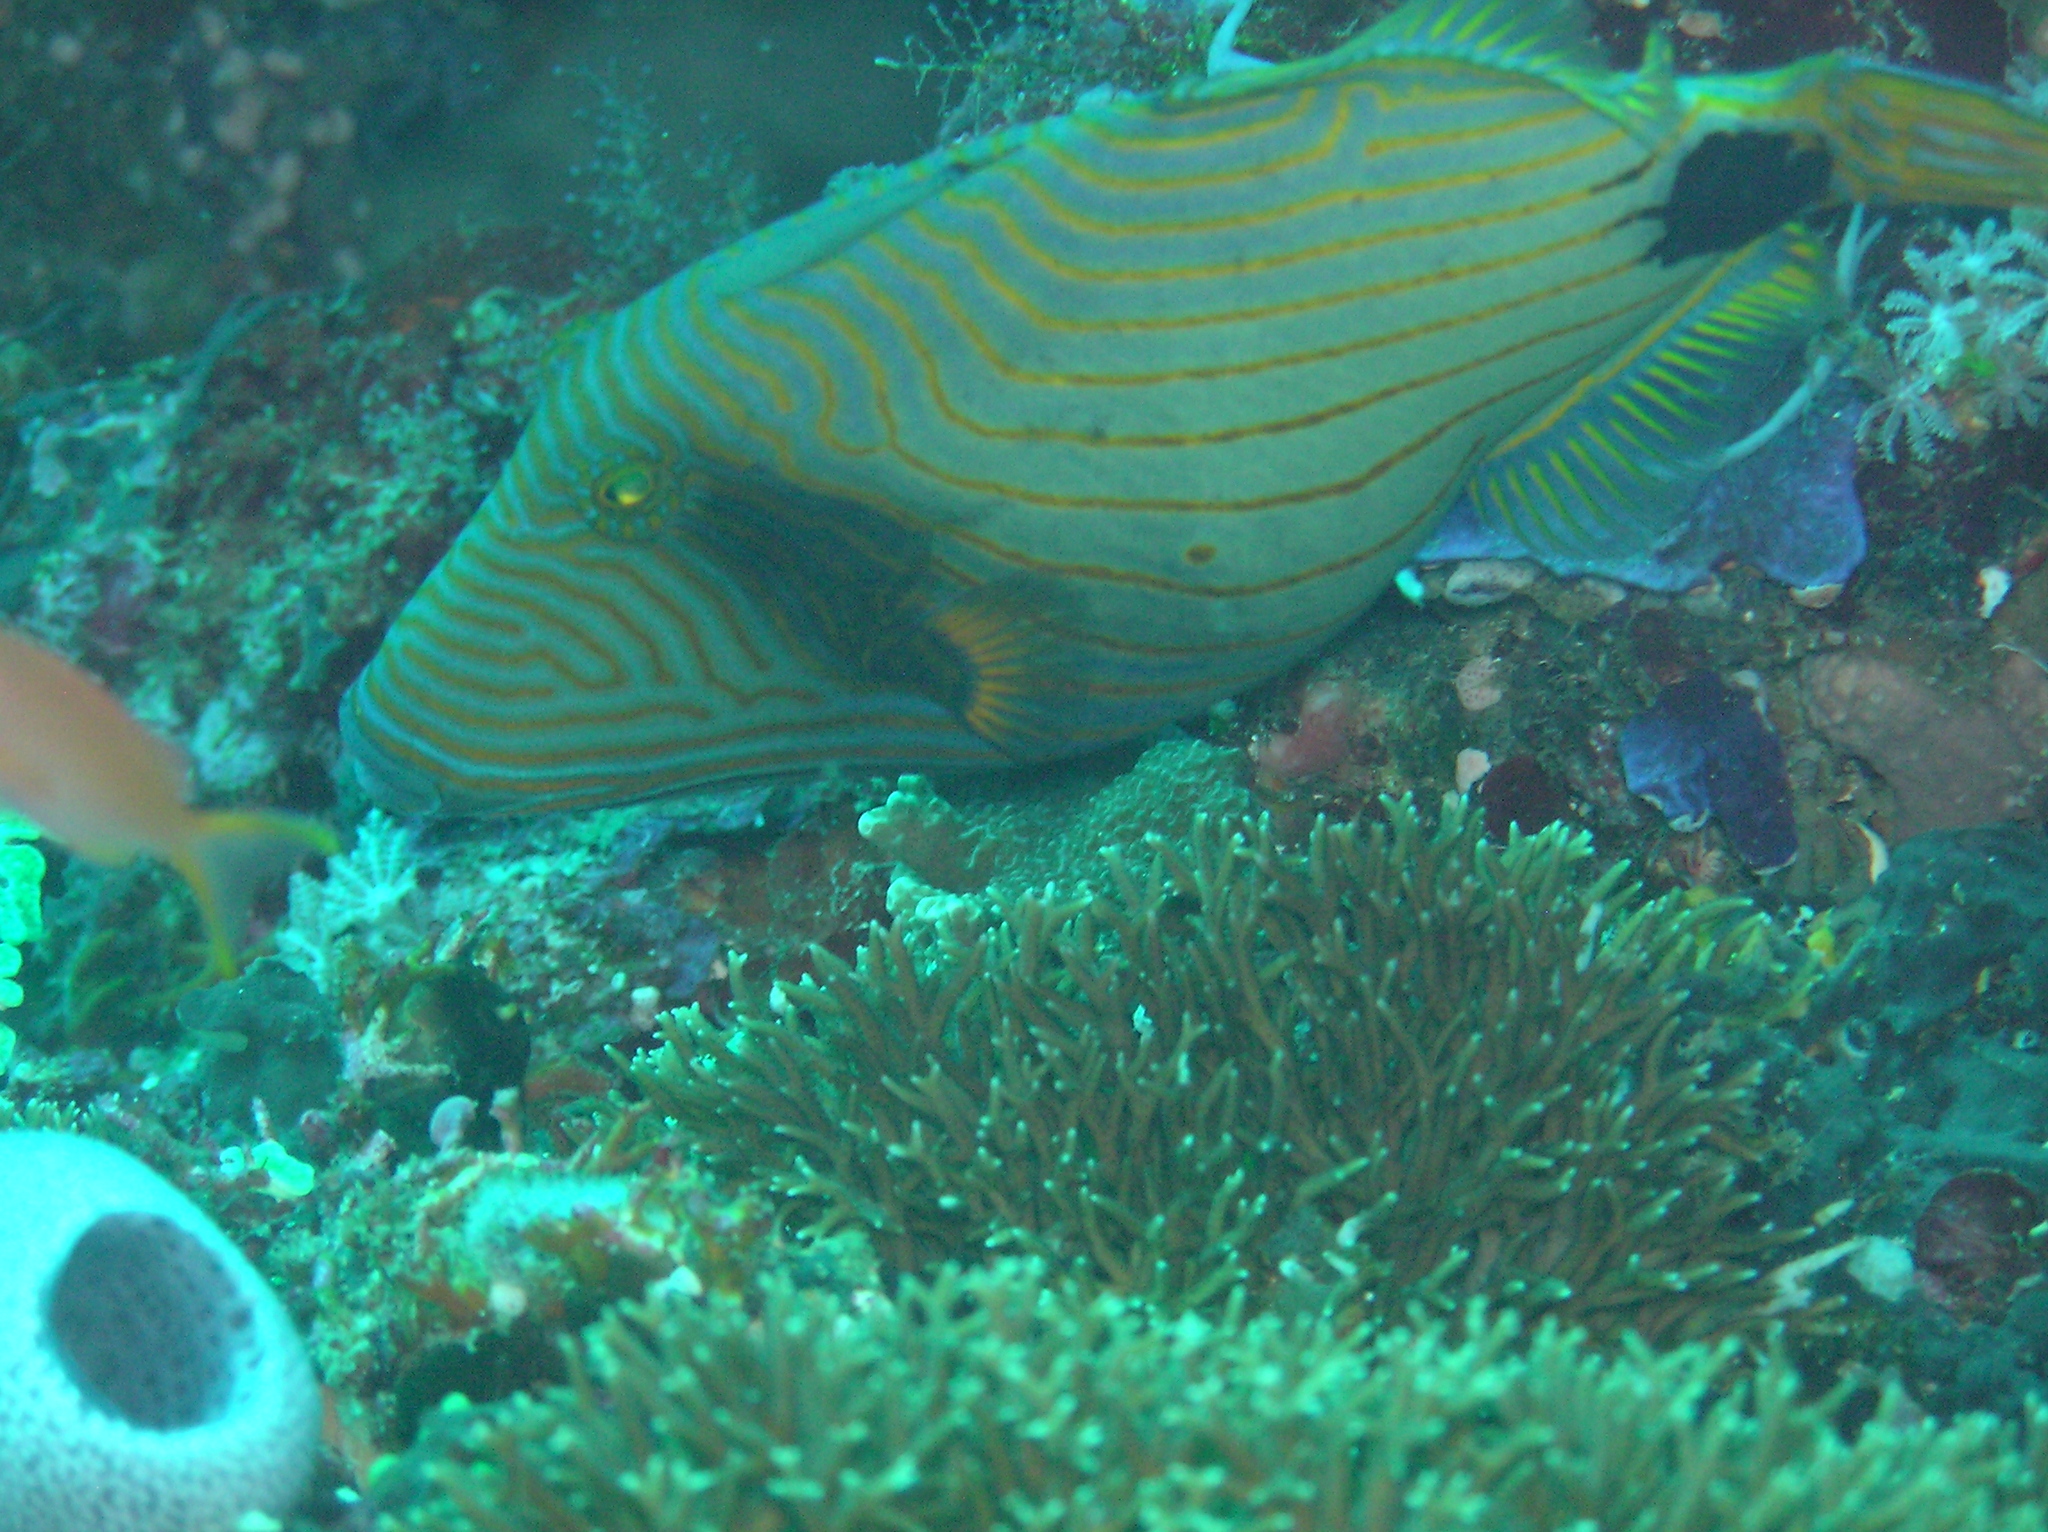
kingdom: Animalia
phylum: Chordata
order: Tetraodontiformes
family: Balistidae
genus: Balistapus
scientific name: Balistapus undulatus
